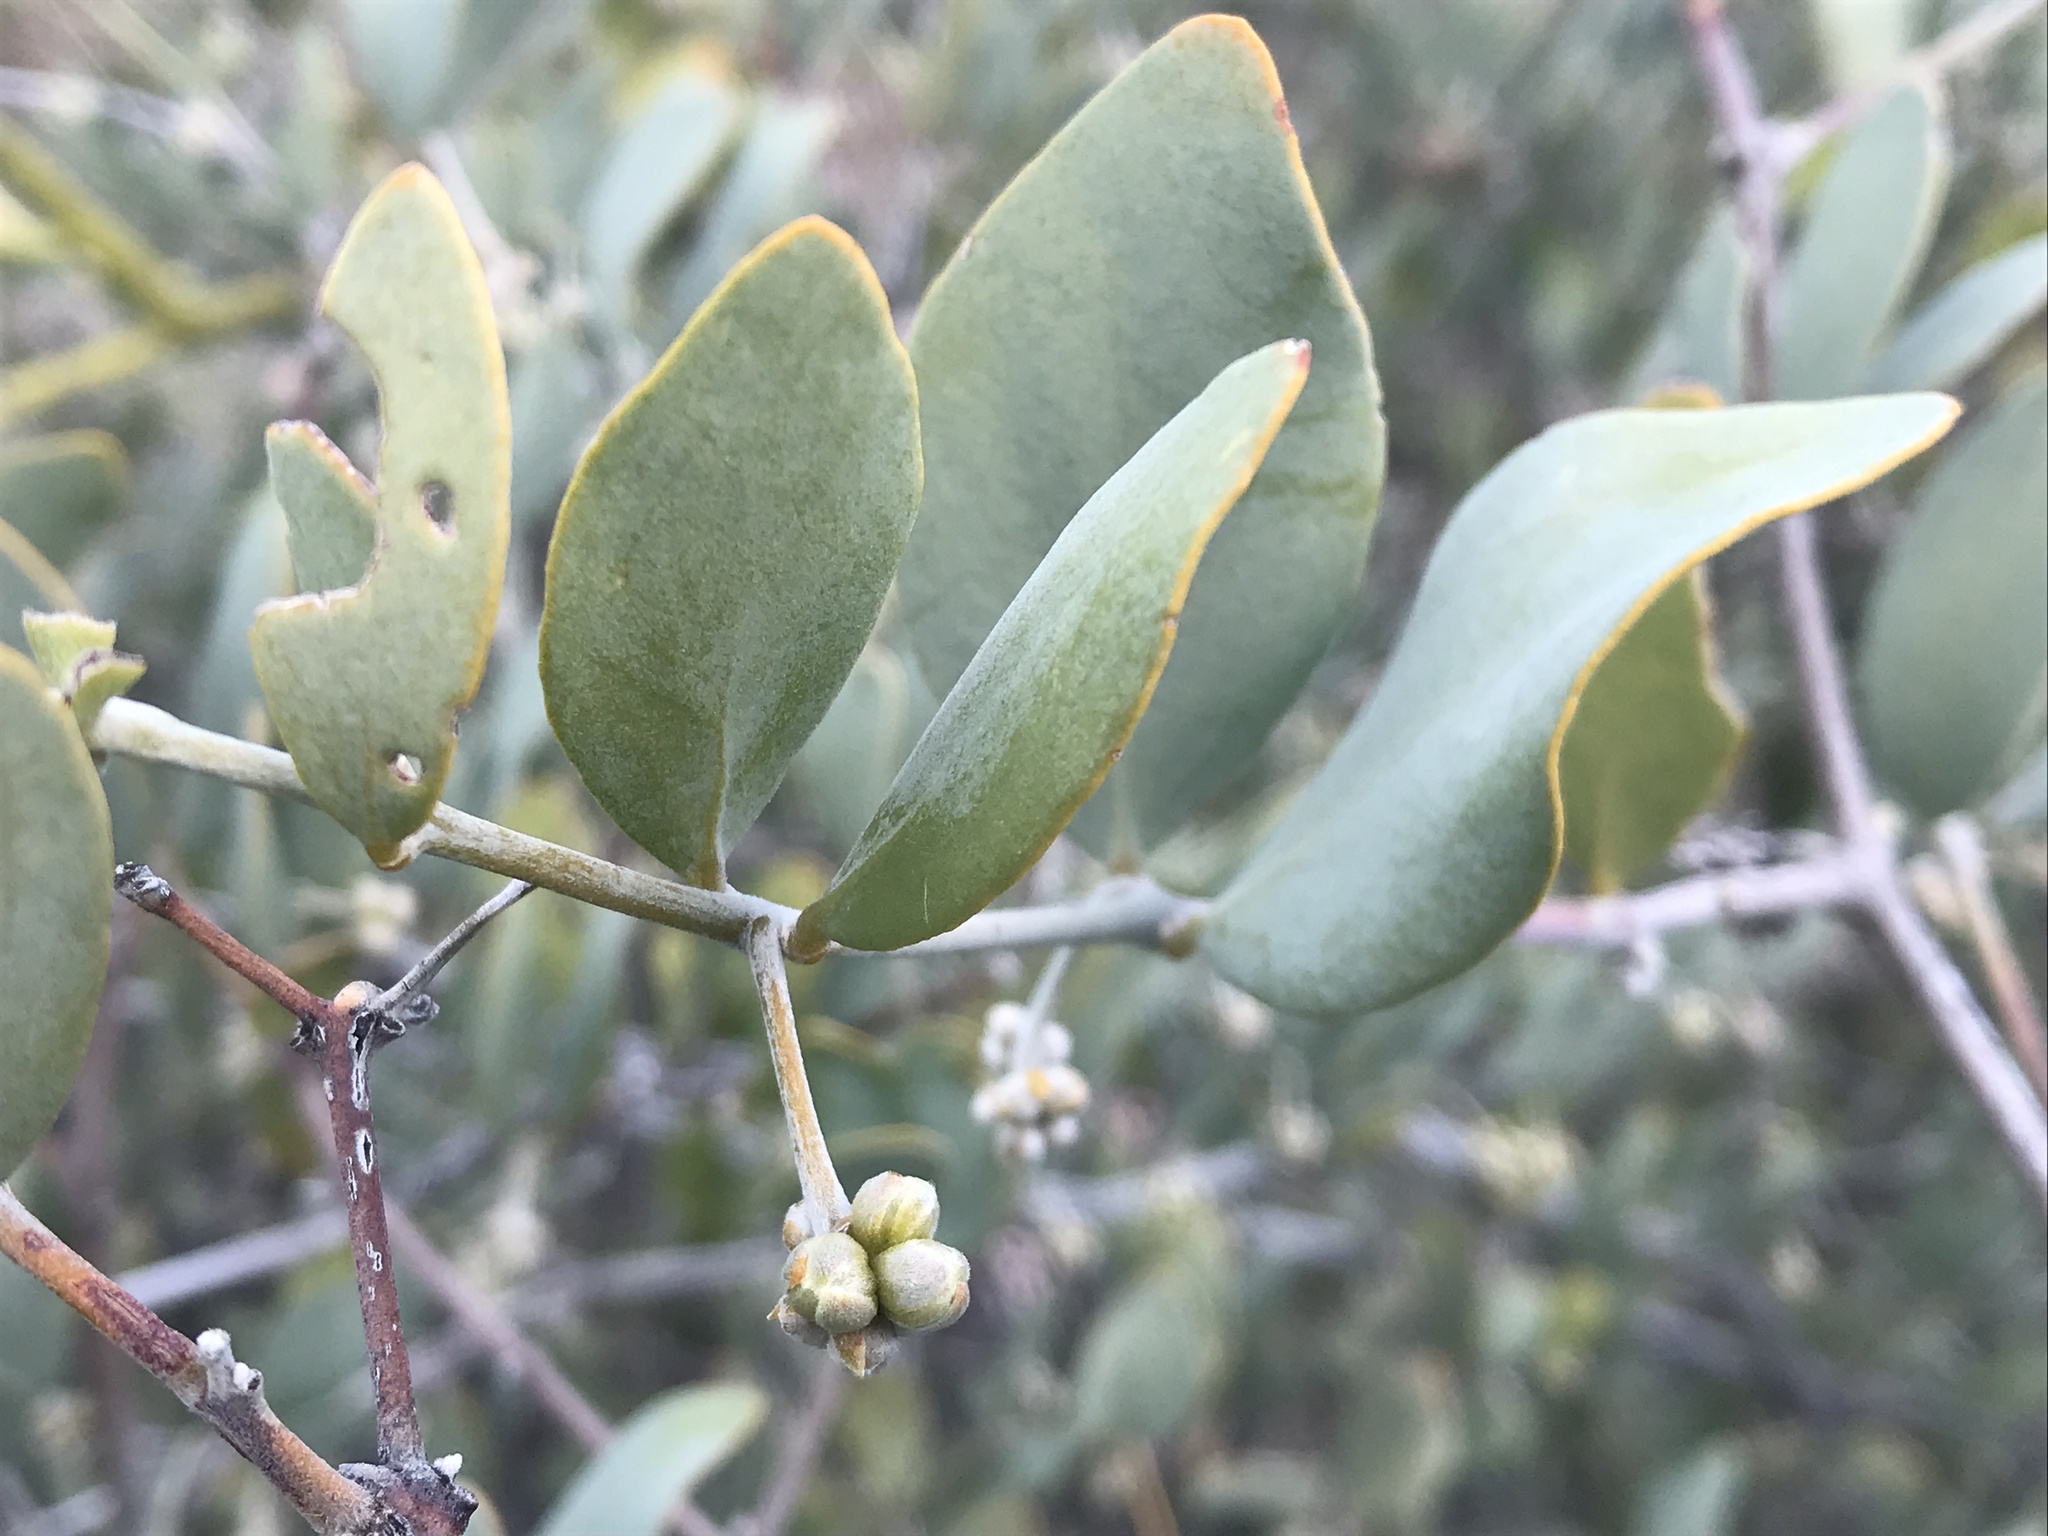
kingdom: Plantae
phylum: Tracheophyta
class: Magnoliopsida
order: Caryophyllales
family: Simmondsiaceae
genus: Simmondsia
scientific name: Simmondsia chinensis
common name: Jojoba
